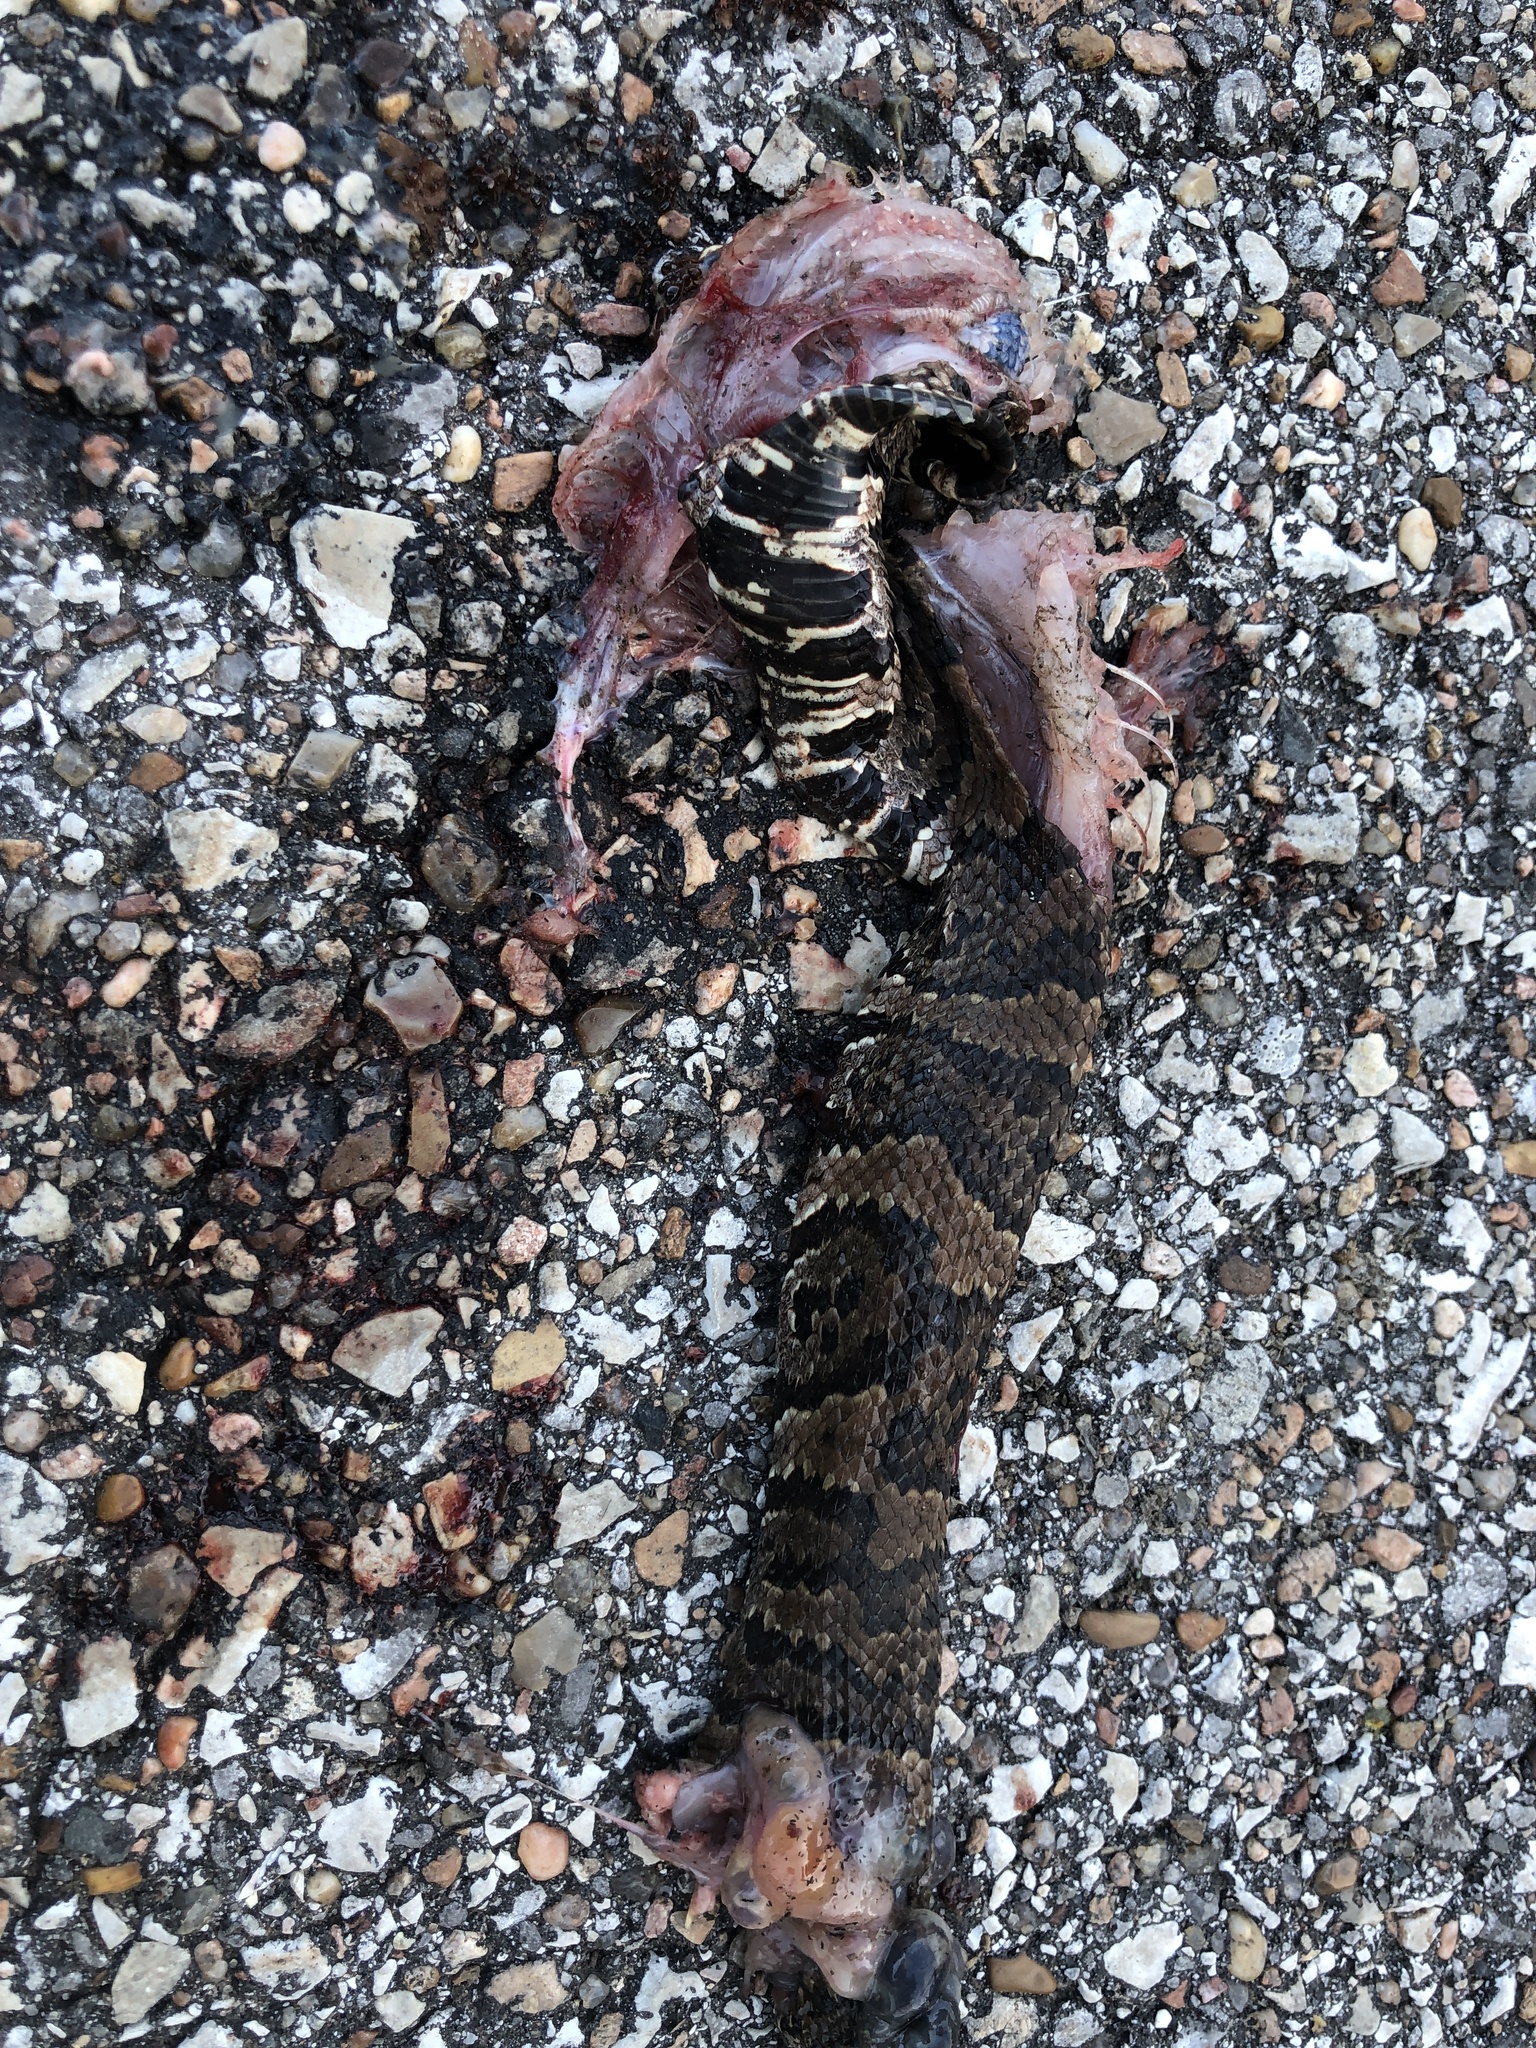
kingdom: Animalia
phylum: Chordata
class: Squamata
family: Viperidae
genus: Agkistrodon
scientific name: Agkistrodon piscivorus
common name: Cottonmouth
